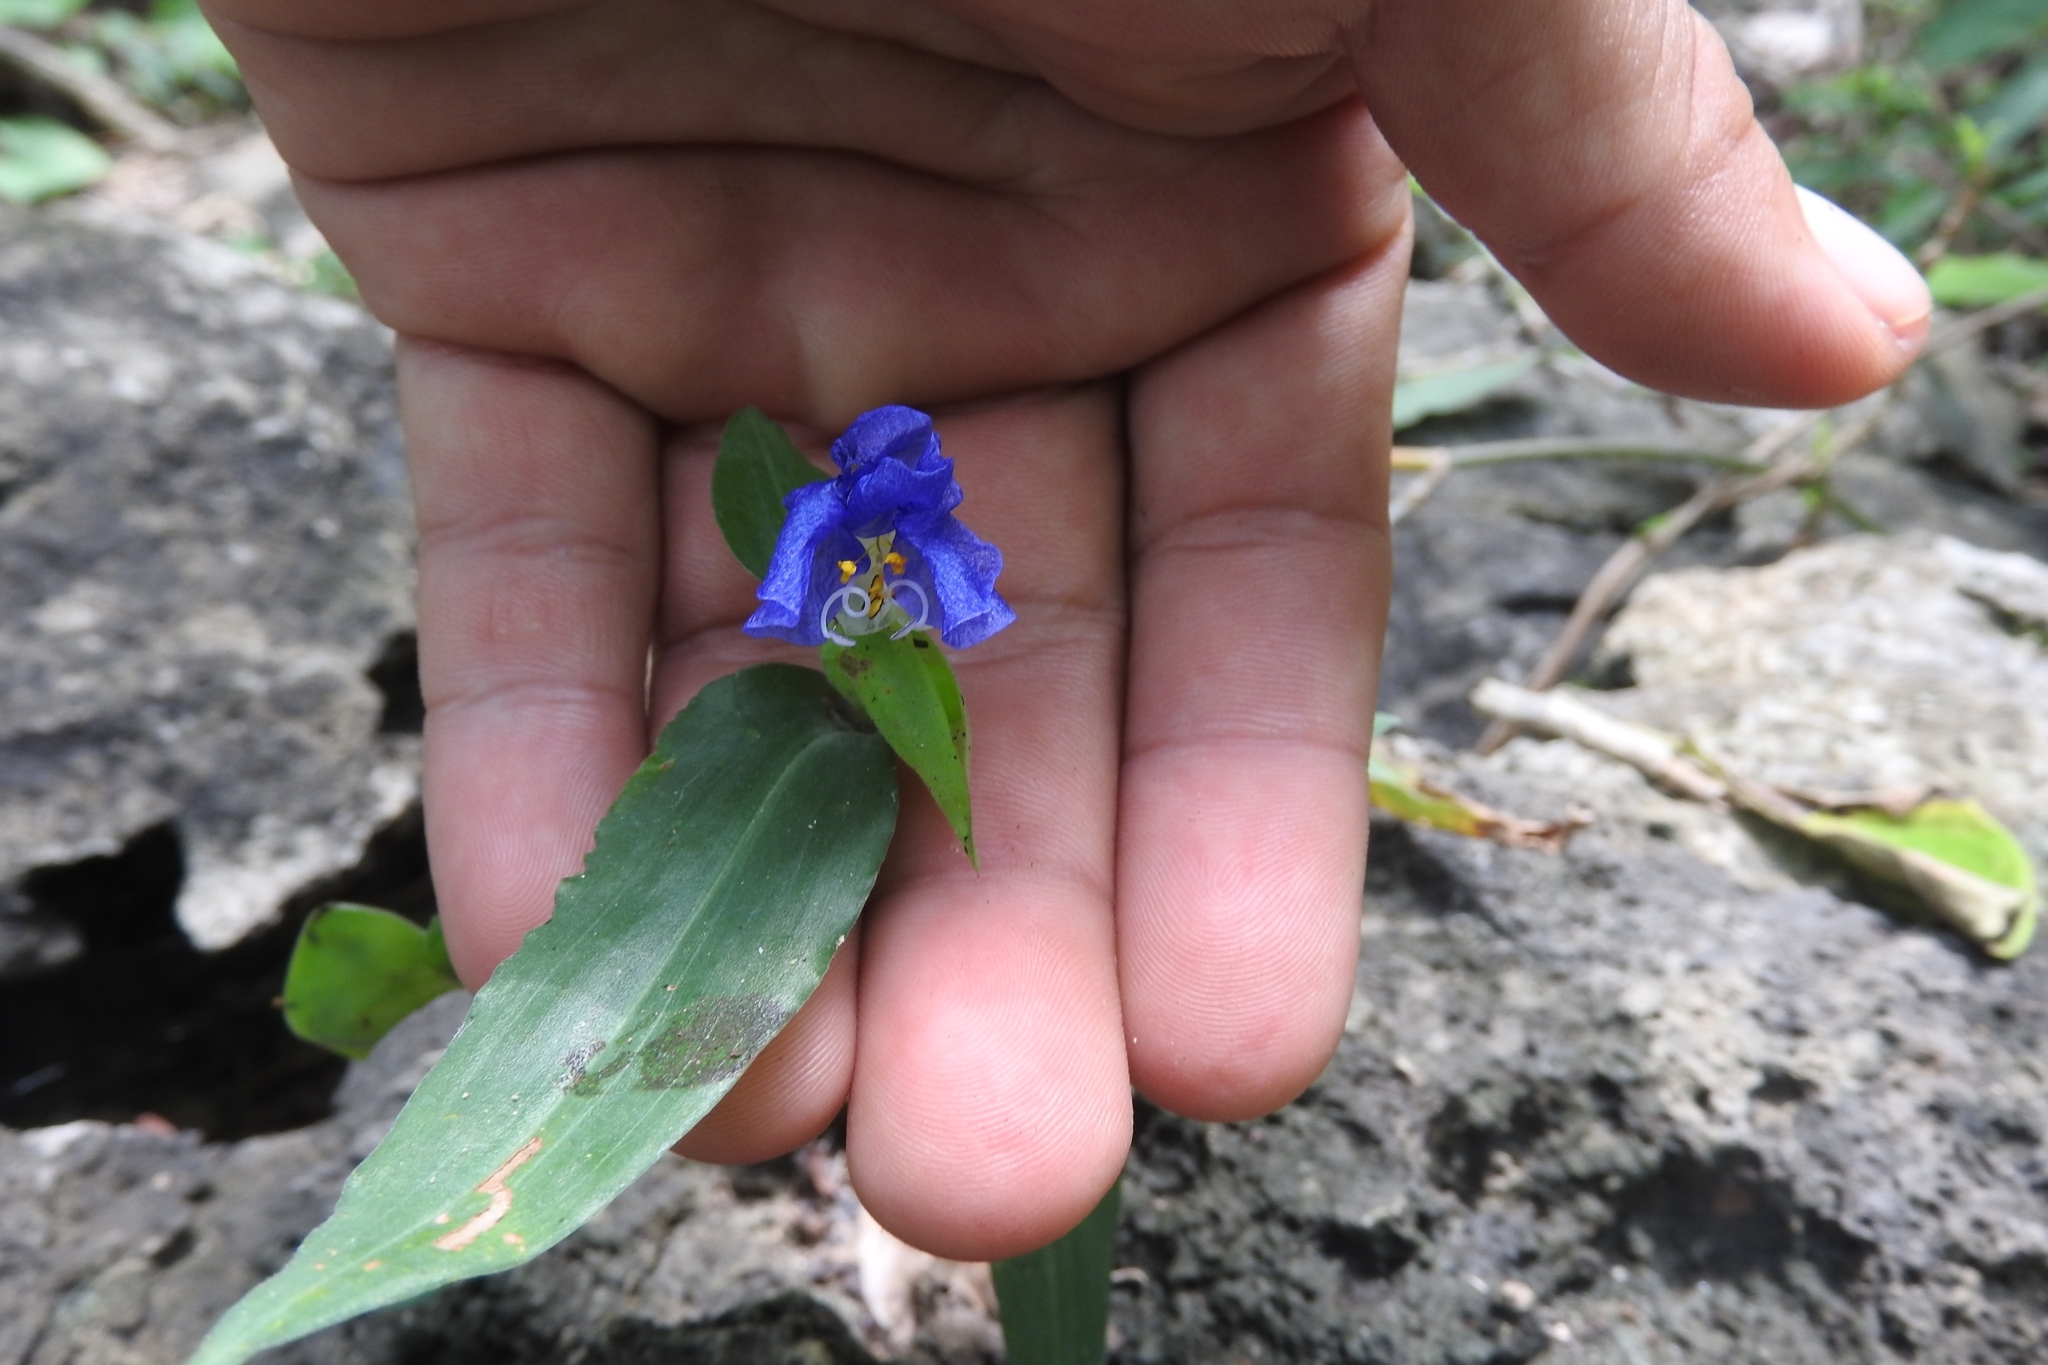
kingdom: Plantae
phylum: Tracheophyta
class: Liliopsida
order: Commelinales
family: Commelinaceae
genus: Commelina
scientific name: Commelina erecta
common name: Blousel blommetjie
